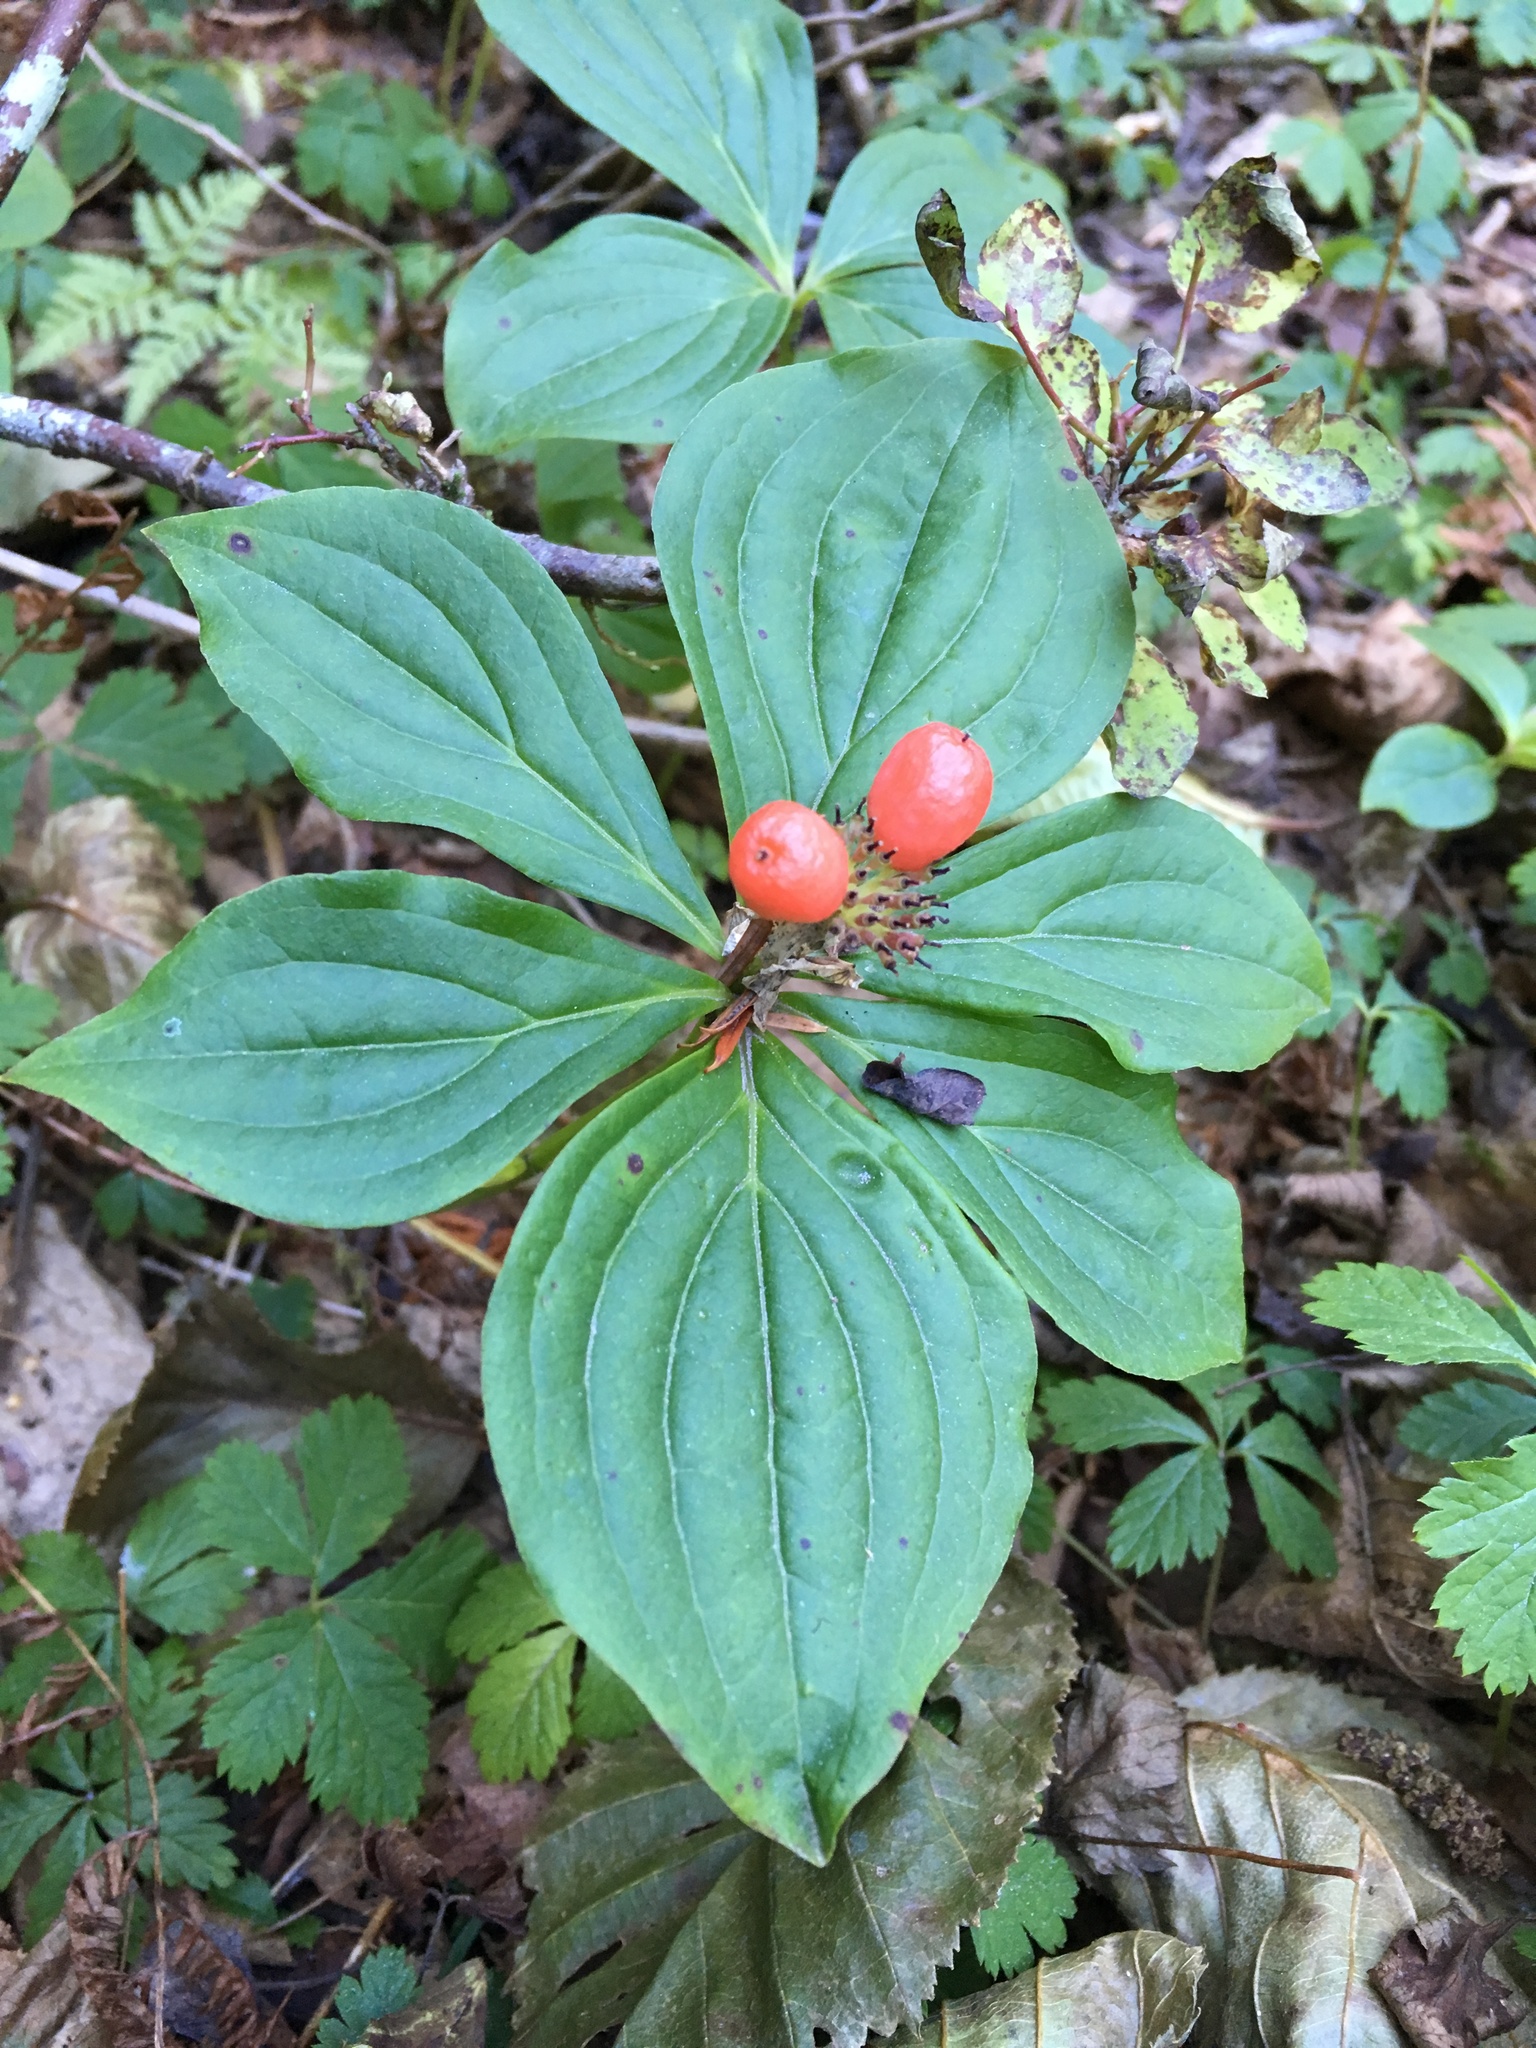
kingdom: Plantae
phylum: Tracheophyta
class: Magnoliopsida
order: Cornales
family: Cornaceae
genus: Cornus
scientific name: Cornus unalaschkensis
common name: Alaska bunchberry
